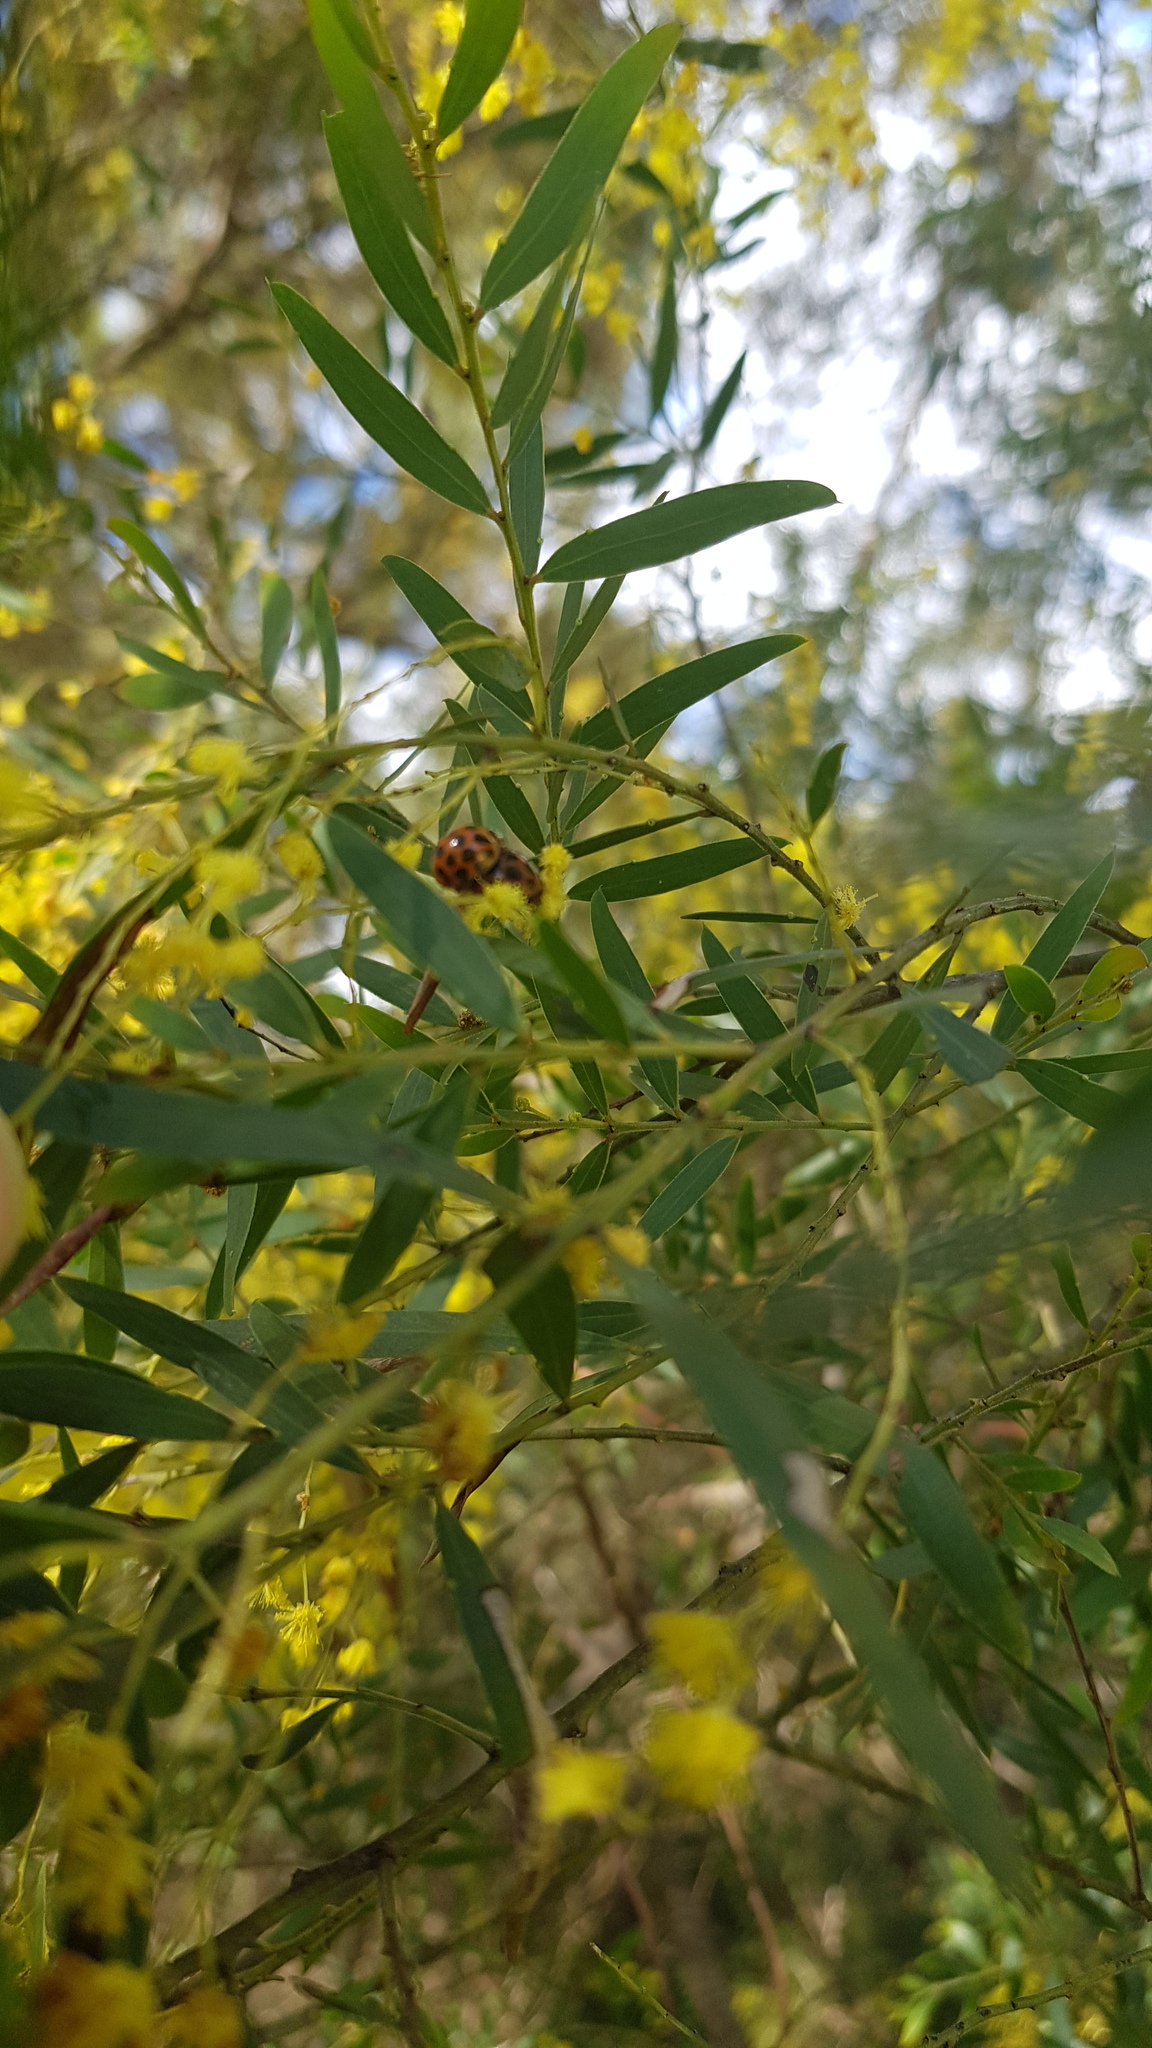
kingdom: Animalia
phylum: Arthropoda
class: Insecta
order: Coleoptera
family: Coccinellidae
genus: Harmonia
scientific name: Harmonia conformis
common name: Common spotted ladybird beetle
